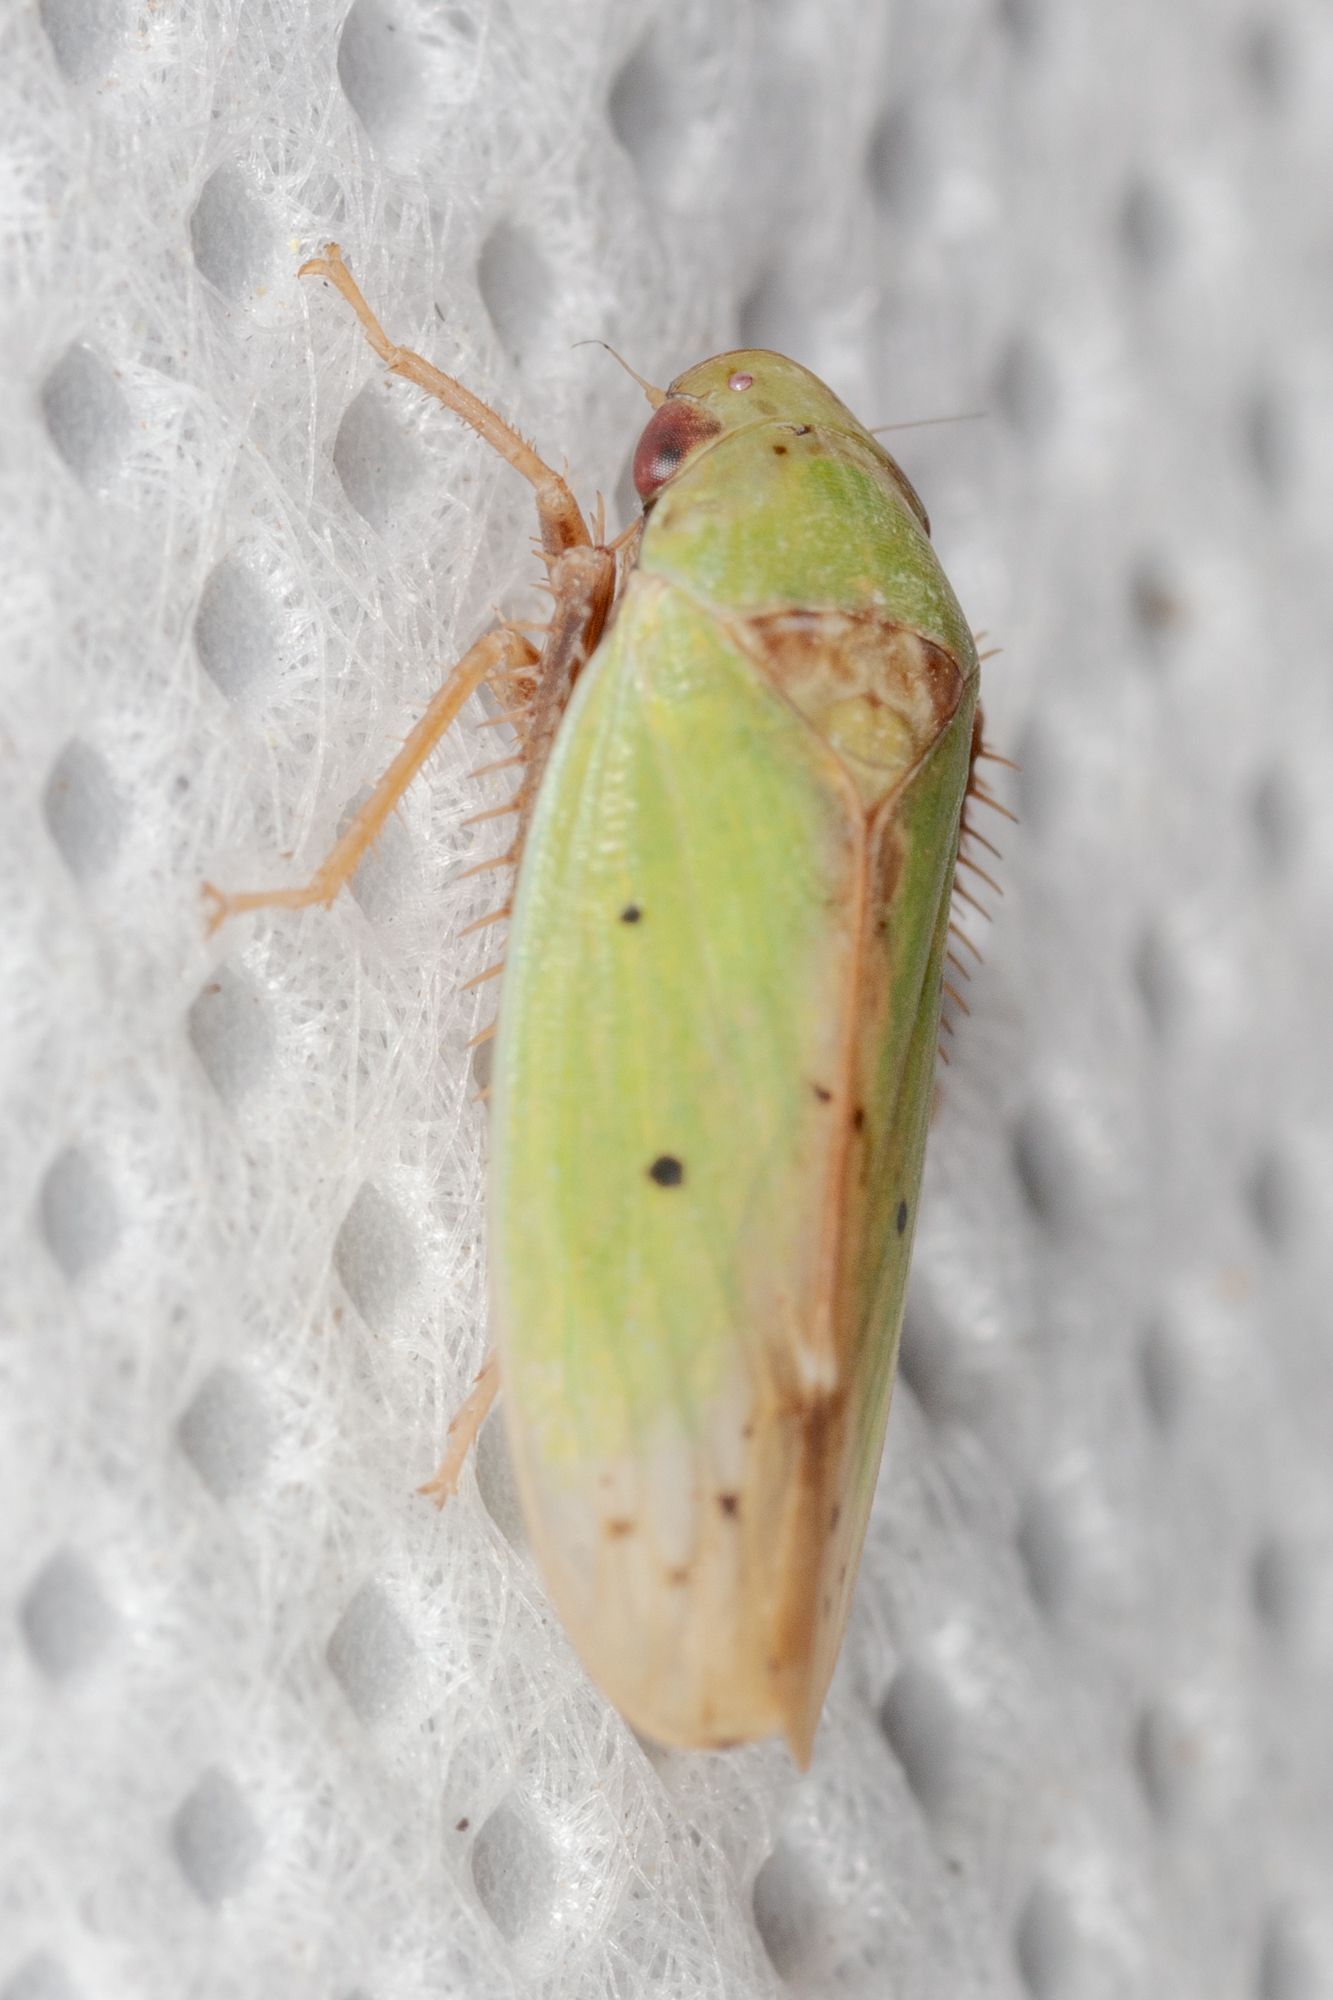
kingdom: Animalia
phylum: Arthropoda
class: Insecta
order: Hemiptera
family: Cicadellidae
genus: Ponana
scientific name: Ponana
